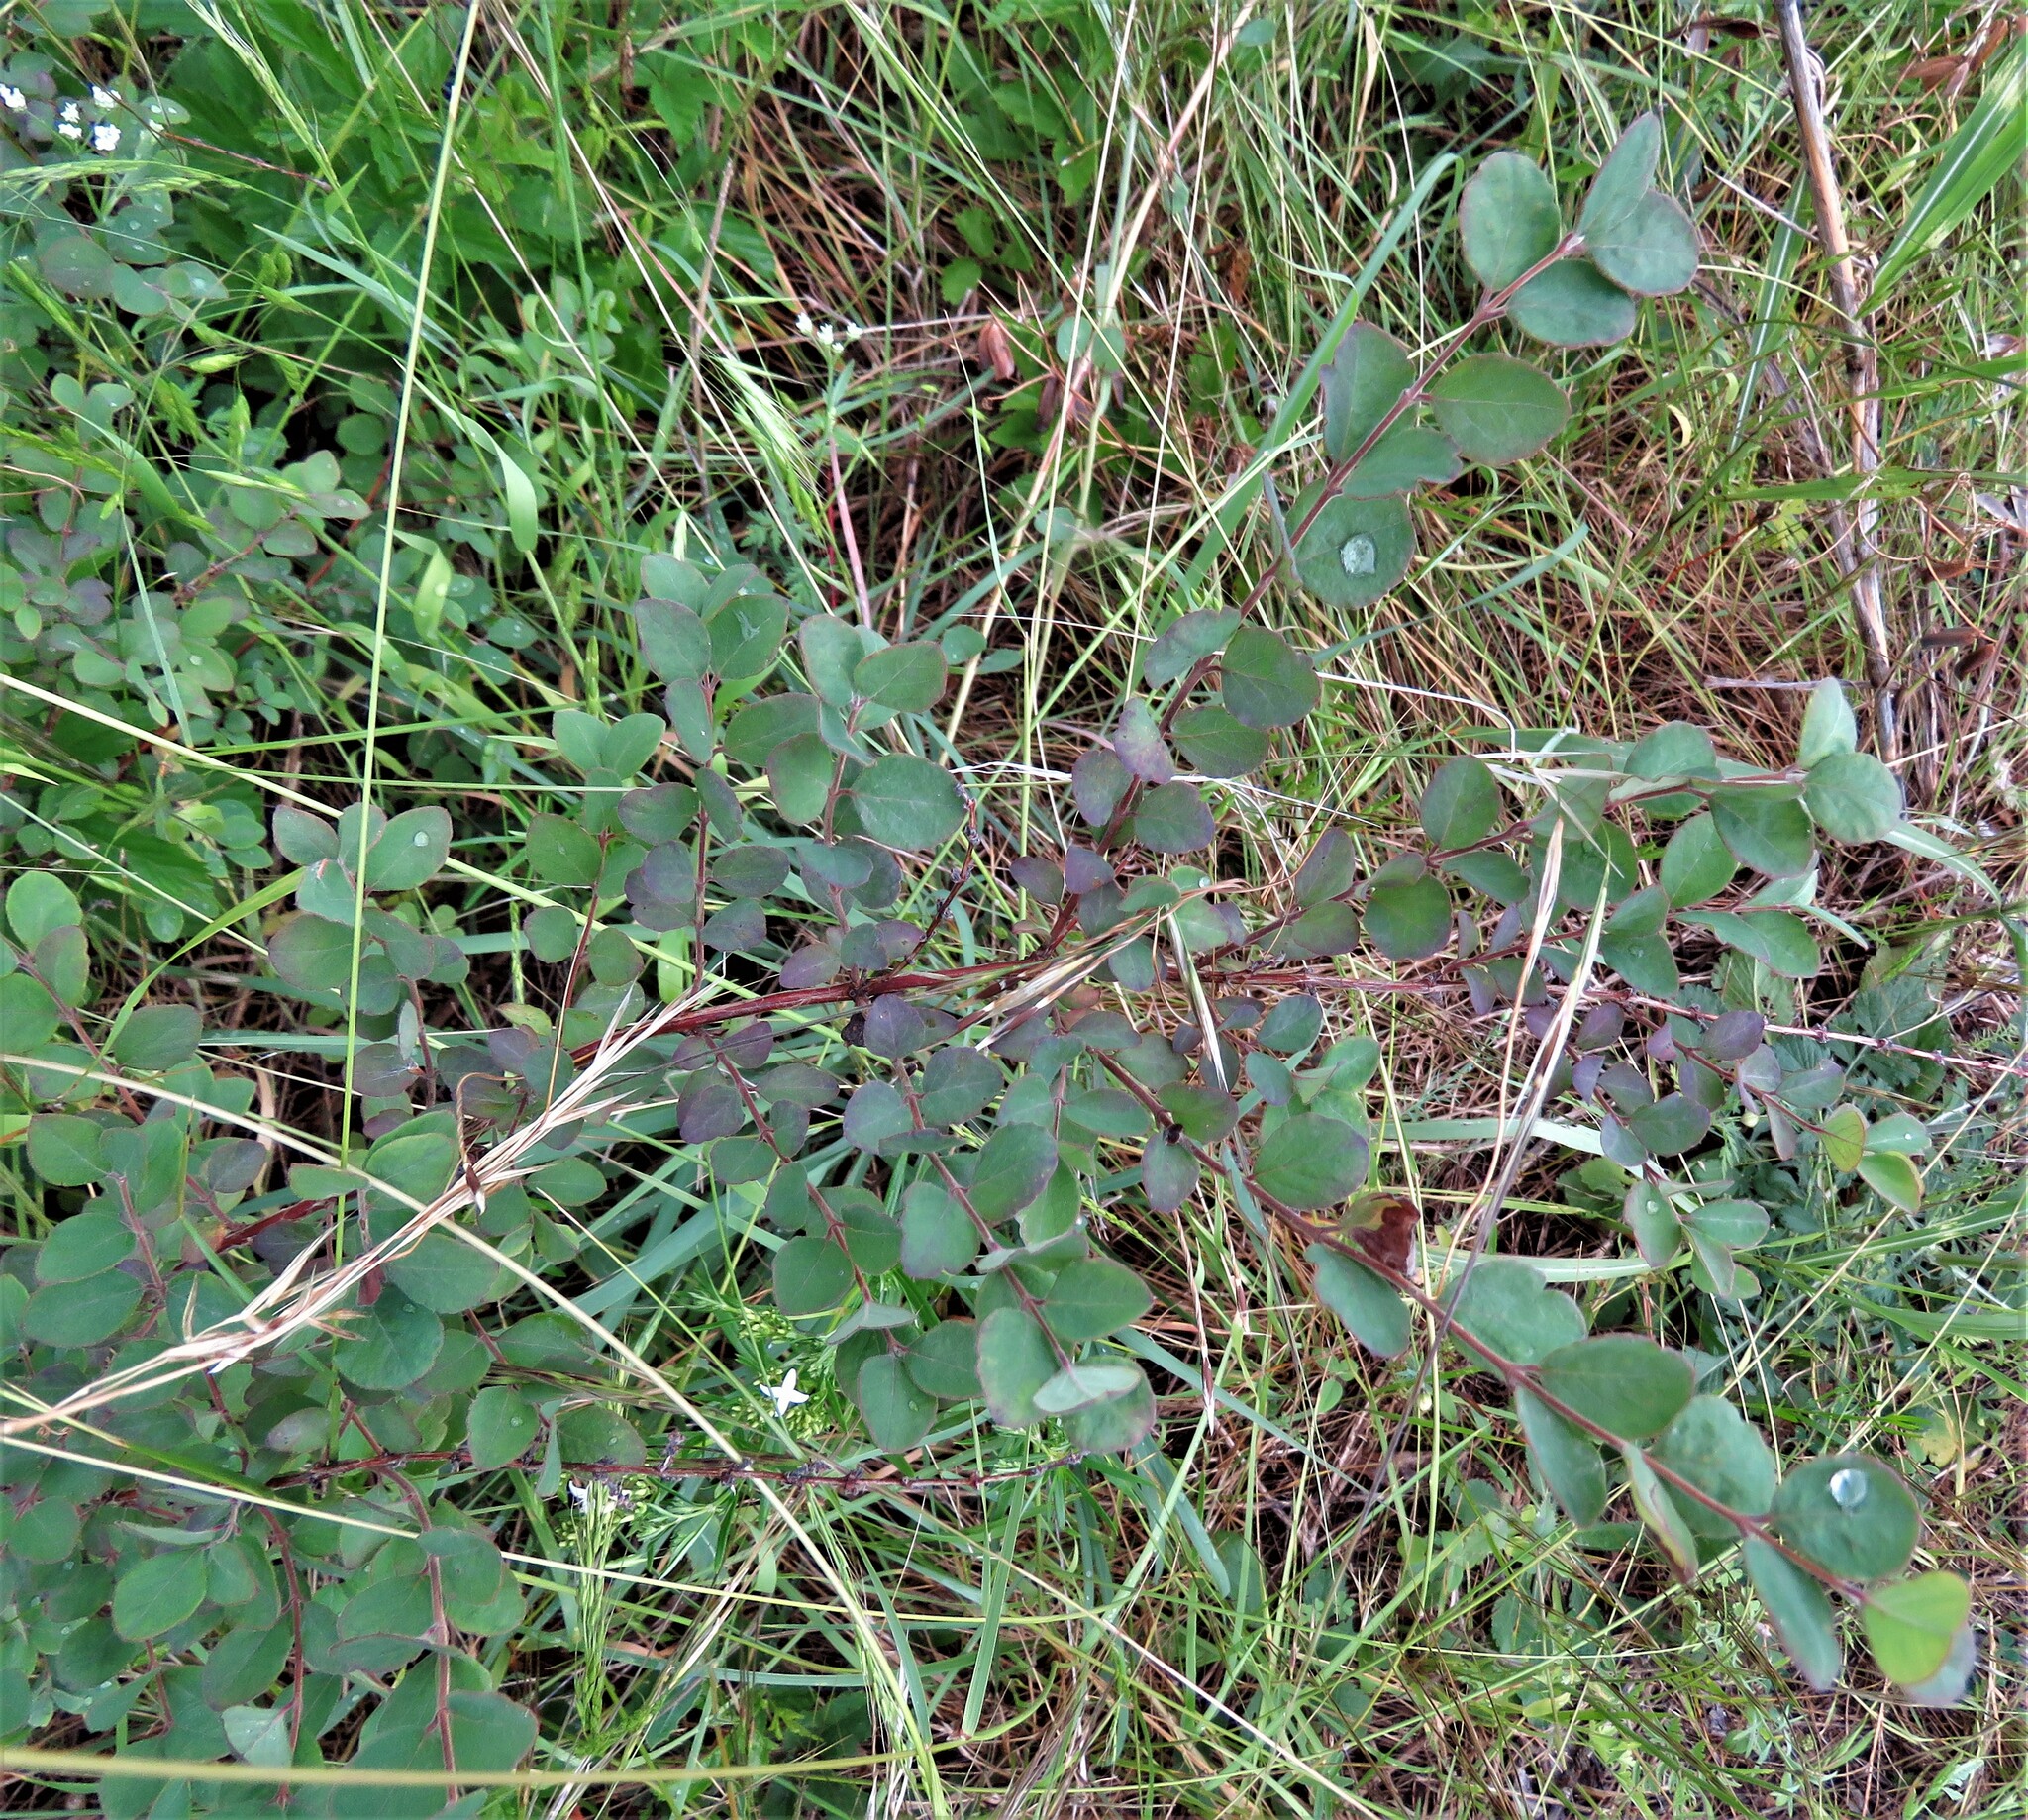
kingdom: Plantae
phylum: Tracheophyta
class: Magnoliopsida
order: Dipsacales
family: Caprifoliaceae
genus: Symphoricarpos
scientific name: Symphoricarpos orbiculatus
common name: Coralberry
